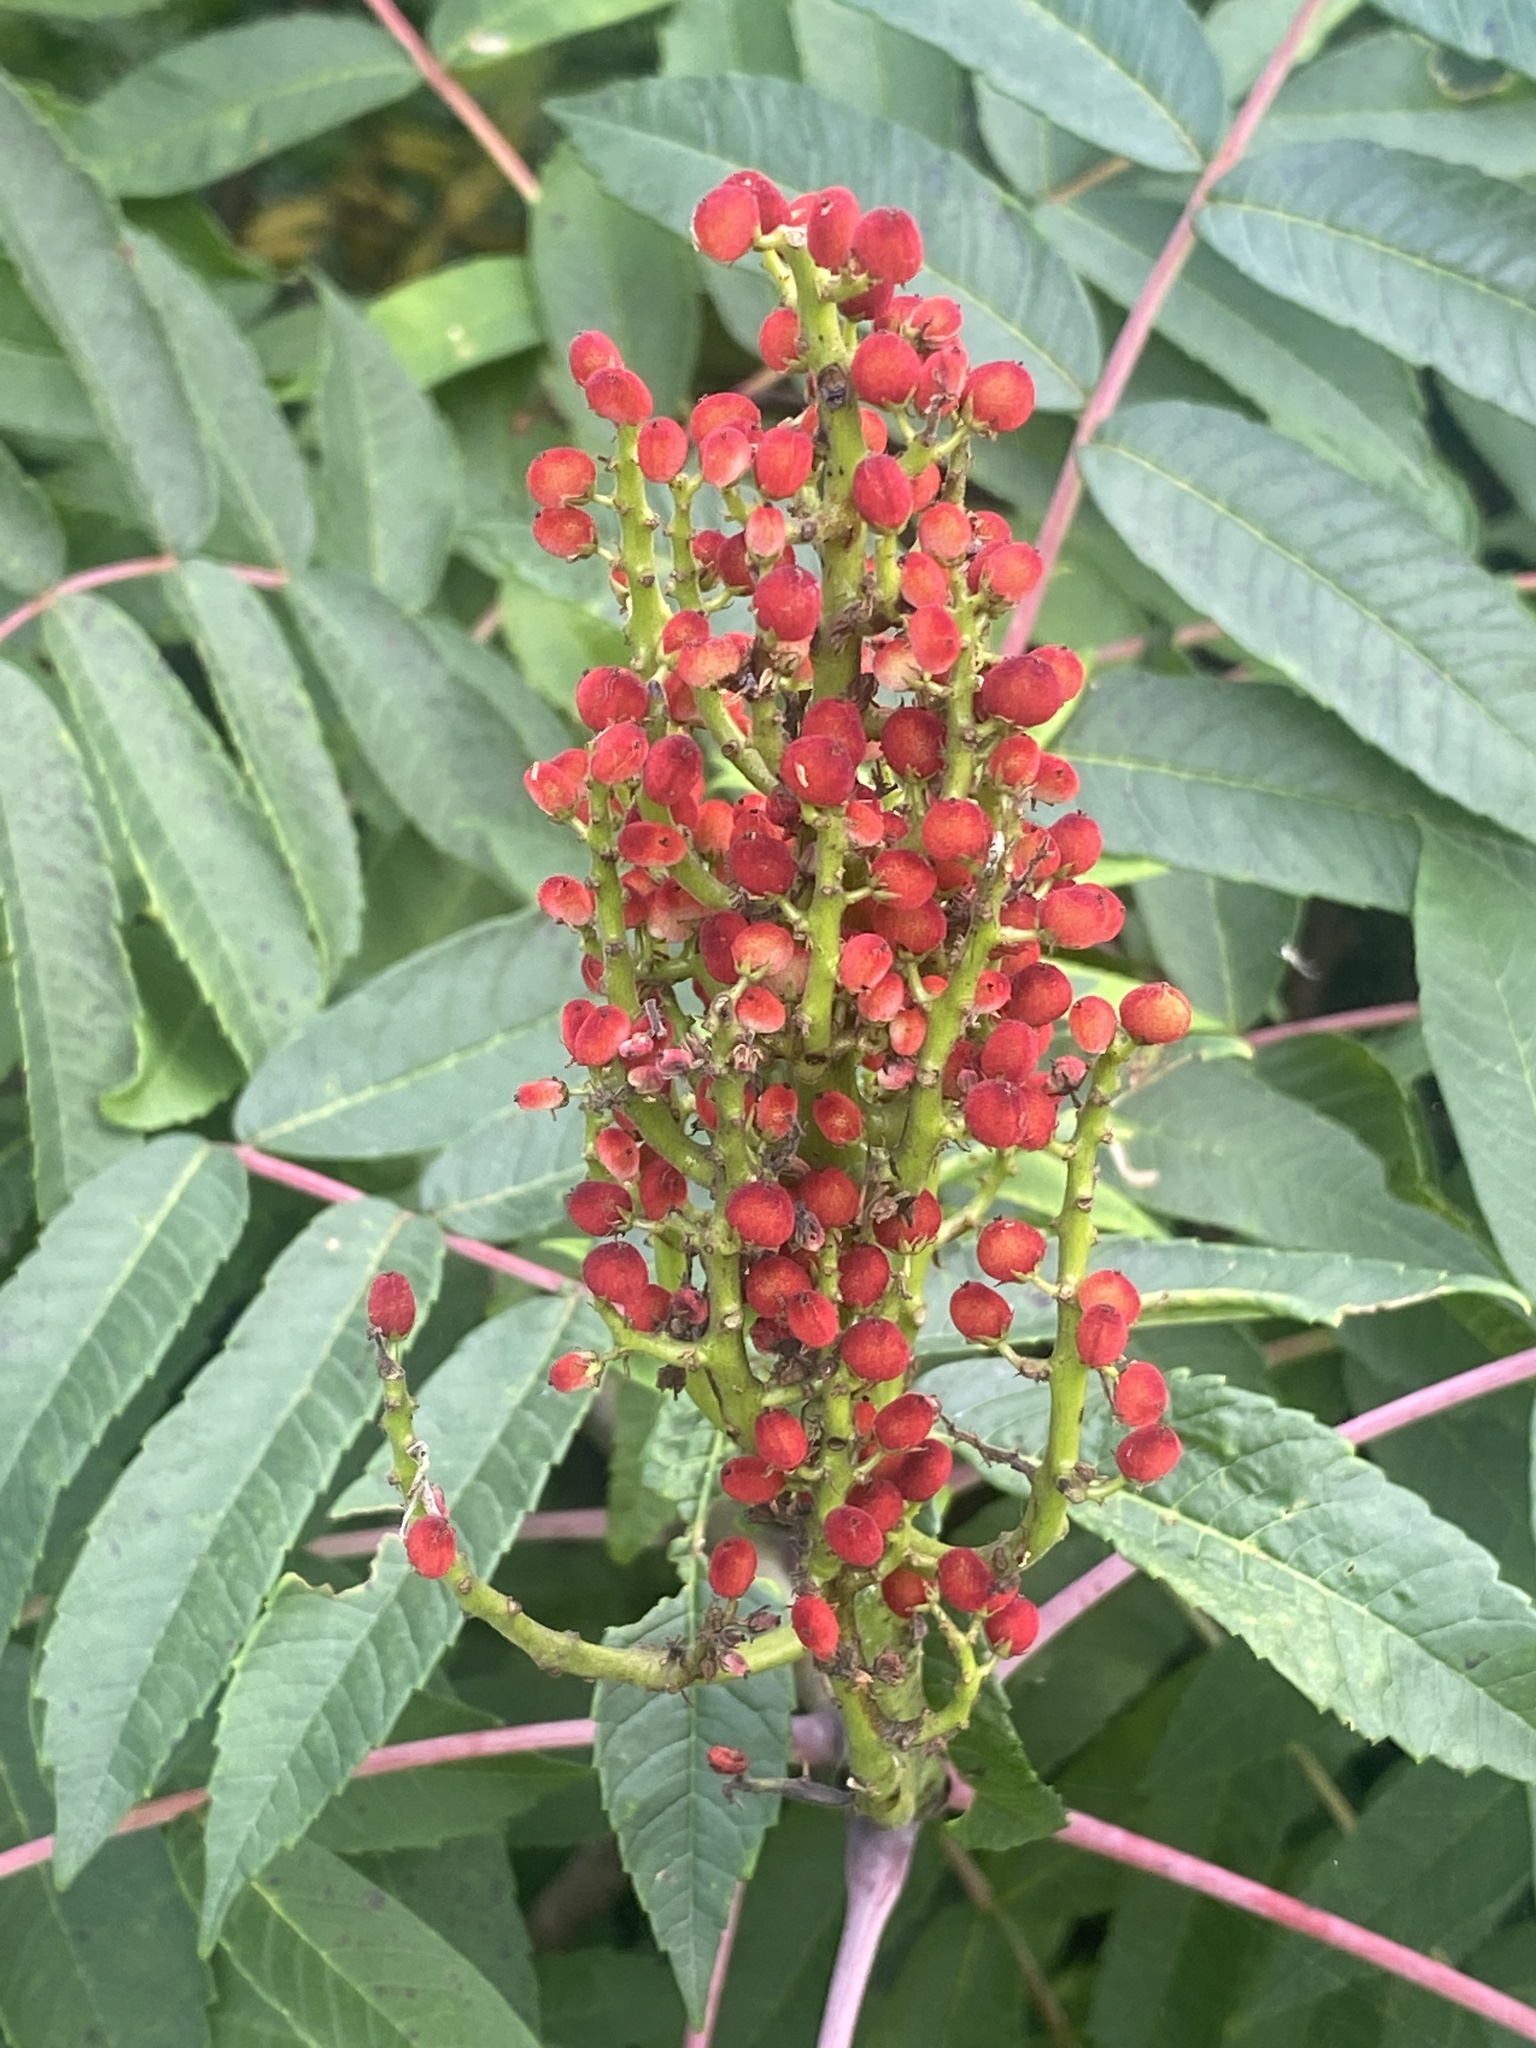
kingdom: Plantae
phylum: Tracheophyta
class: Magnoliopsida
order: Sapindales
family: Anacardiaceae
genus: Rhus
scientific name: Rhus glabra
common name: Scarlet sumac
